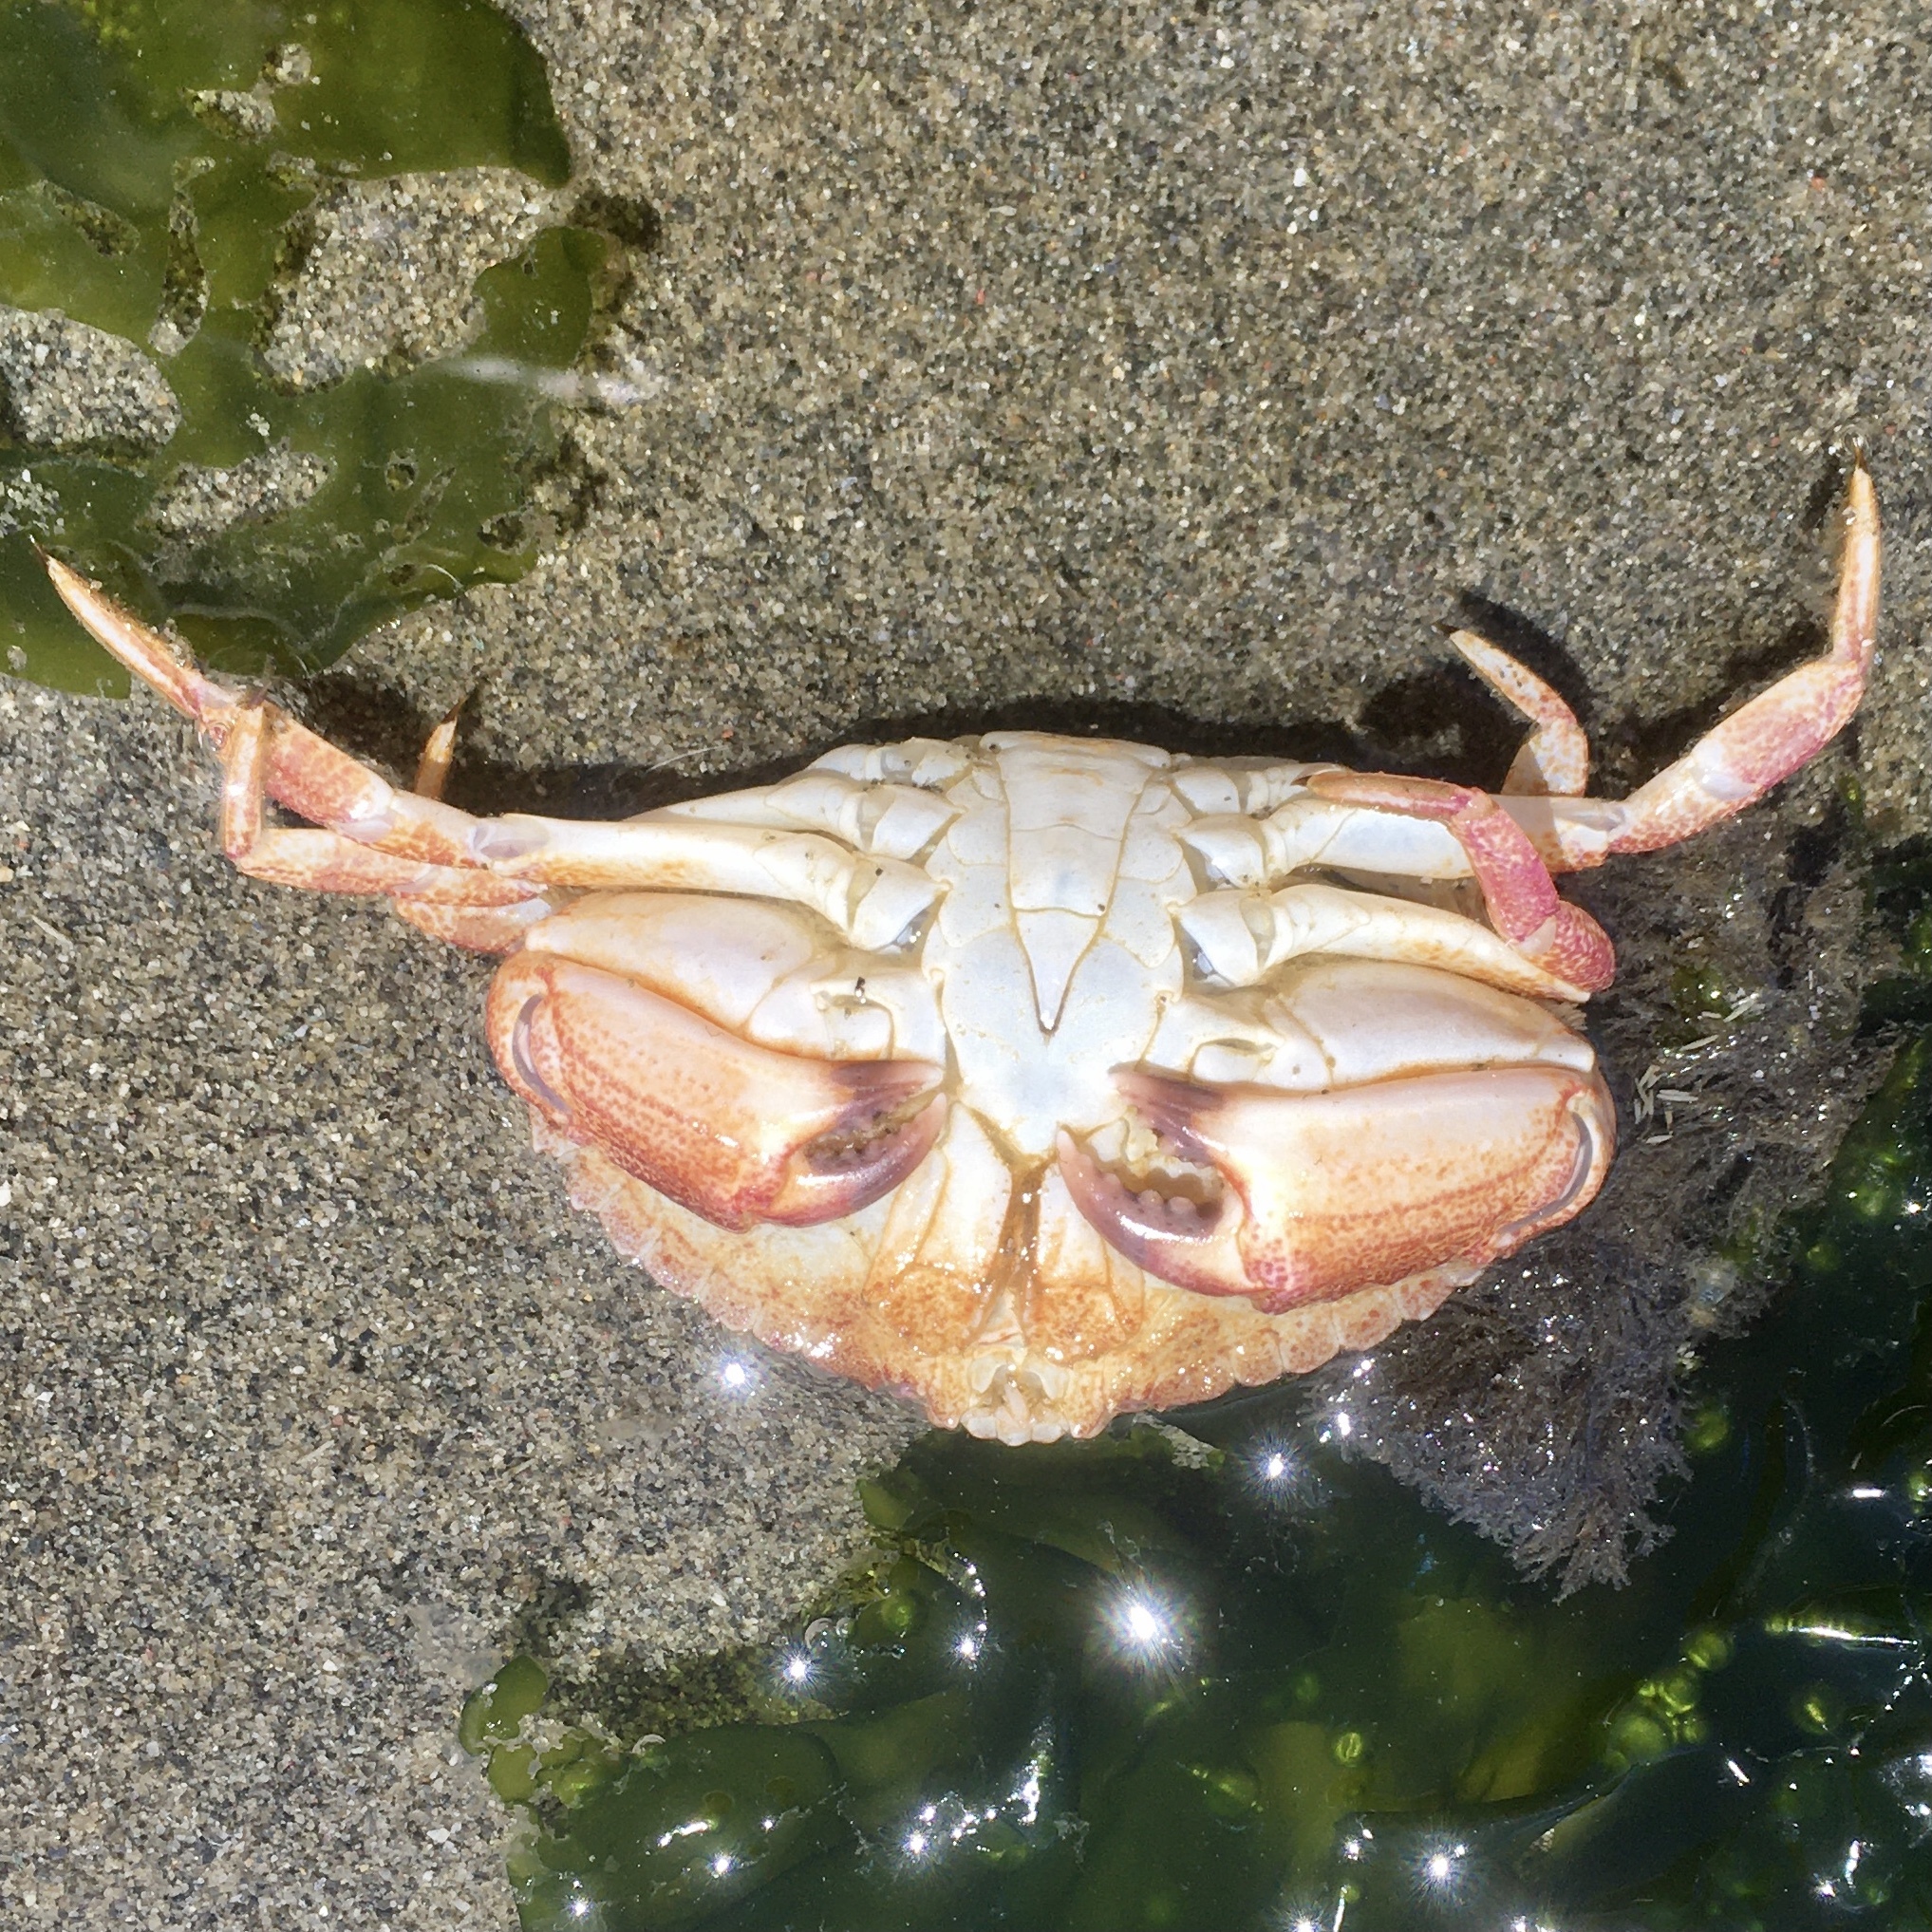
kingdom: Animalia
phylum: Arthropoda
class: Malacostraca
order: Decapoda
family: Cancridae
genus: Cancer
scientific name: Cancer productus
